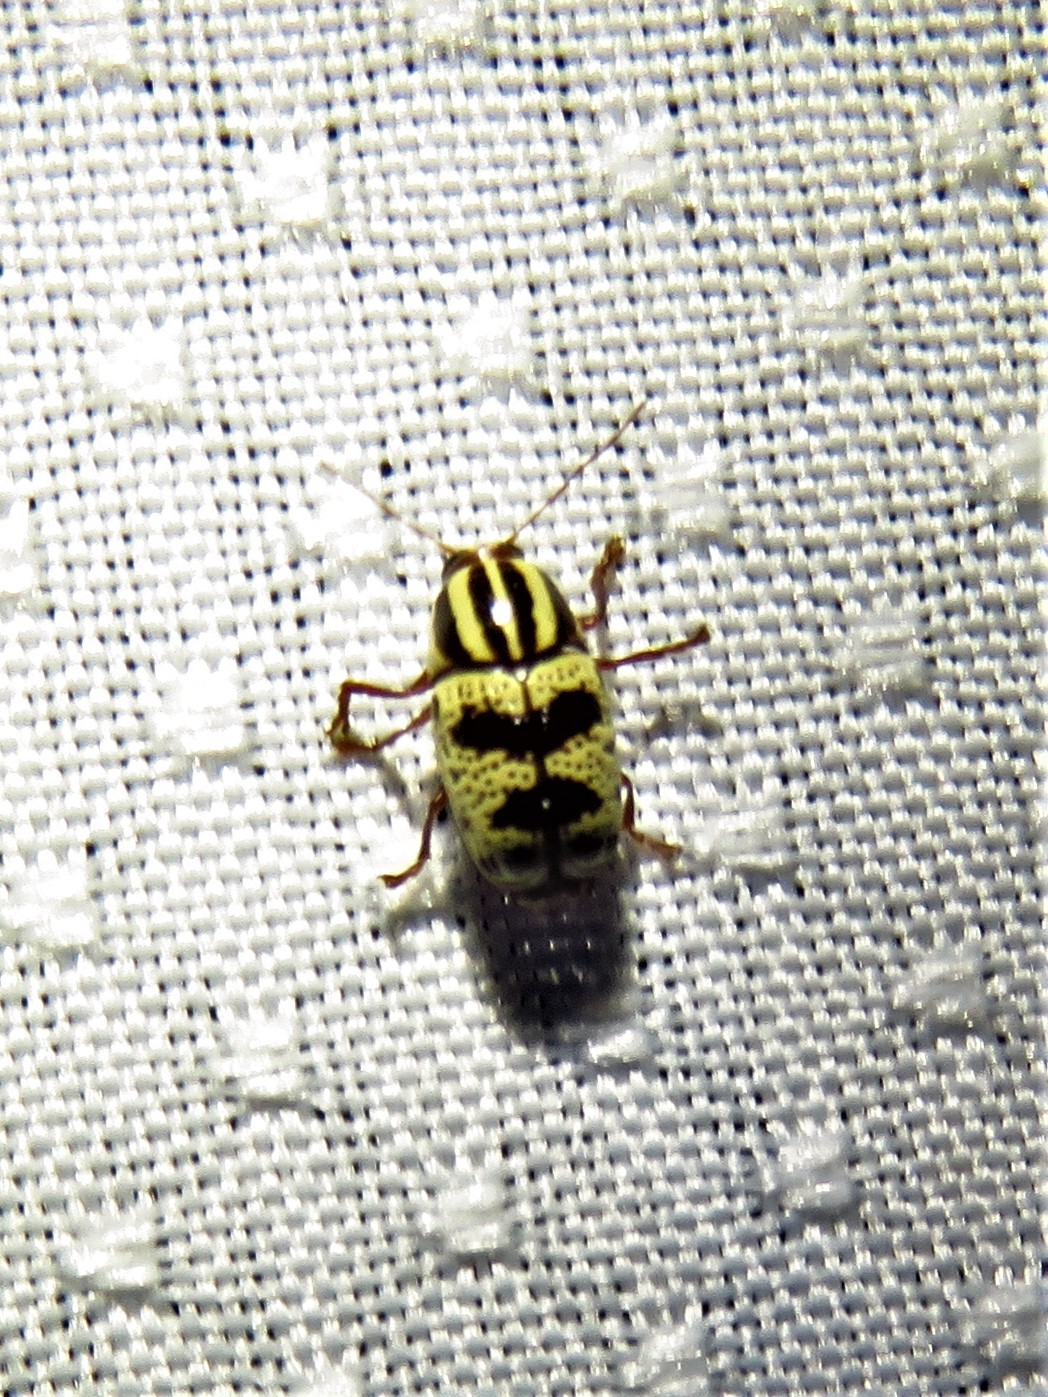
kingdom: Animalia
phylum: Arthropoda
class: Insecta
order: Coleoptera
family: Chrysomelidae
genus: Cryptocephalus
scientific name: Cryptocephalus leucomelas
